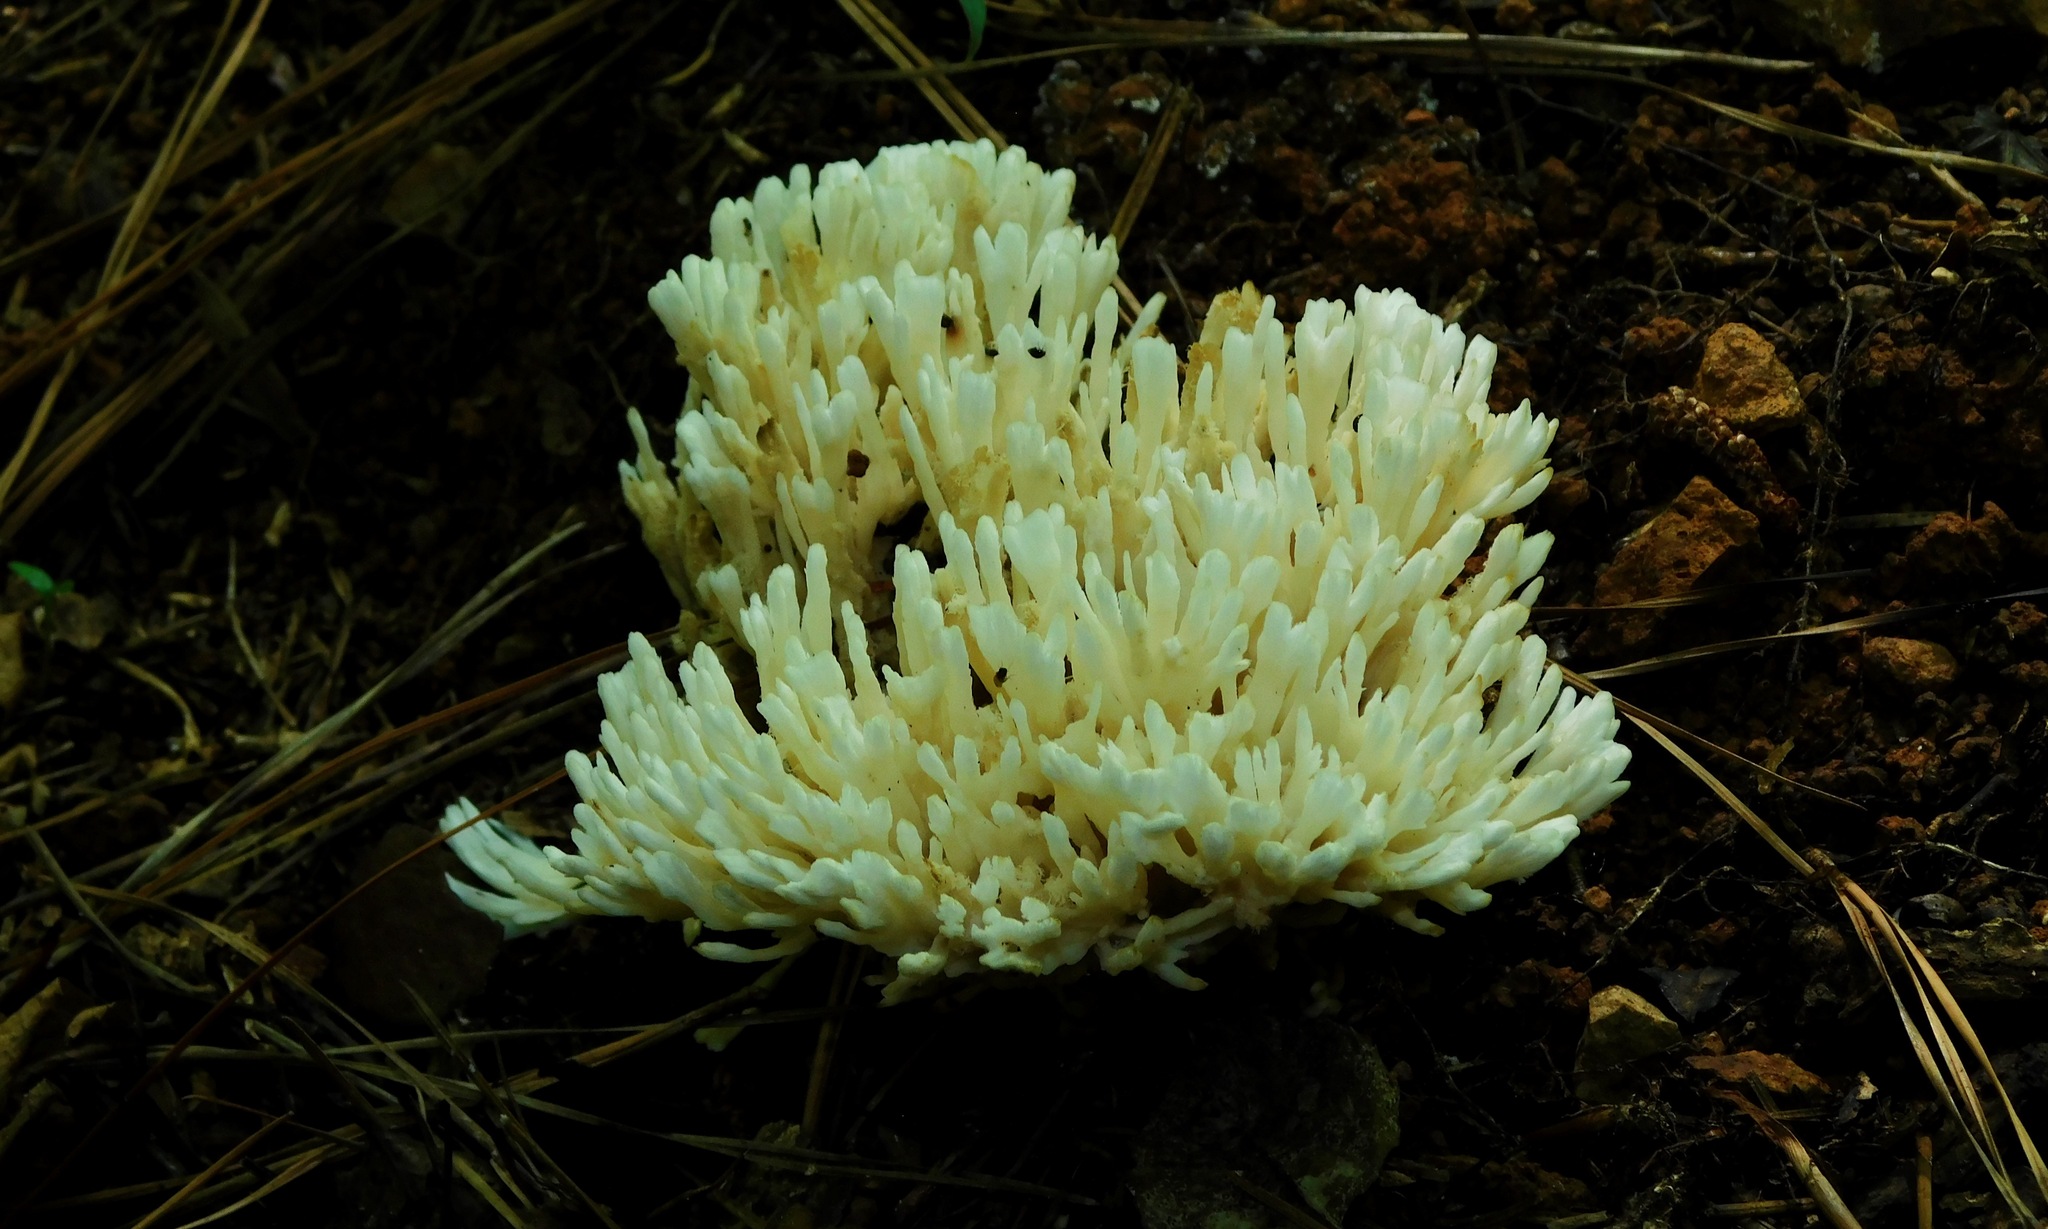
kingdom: Fungi
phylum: Basidiomycota
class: Agaricomycetes
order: Sebacinales
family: Sebacinaceae
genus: Sebacina
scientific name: Sebacina schweinitzii
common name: Jellied false coral fungus
